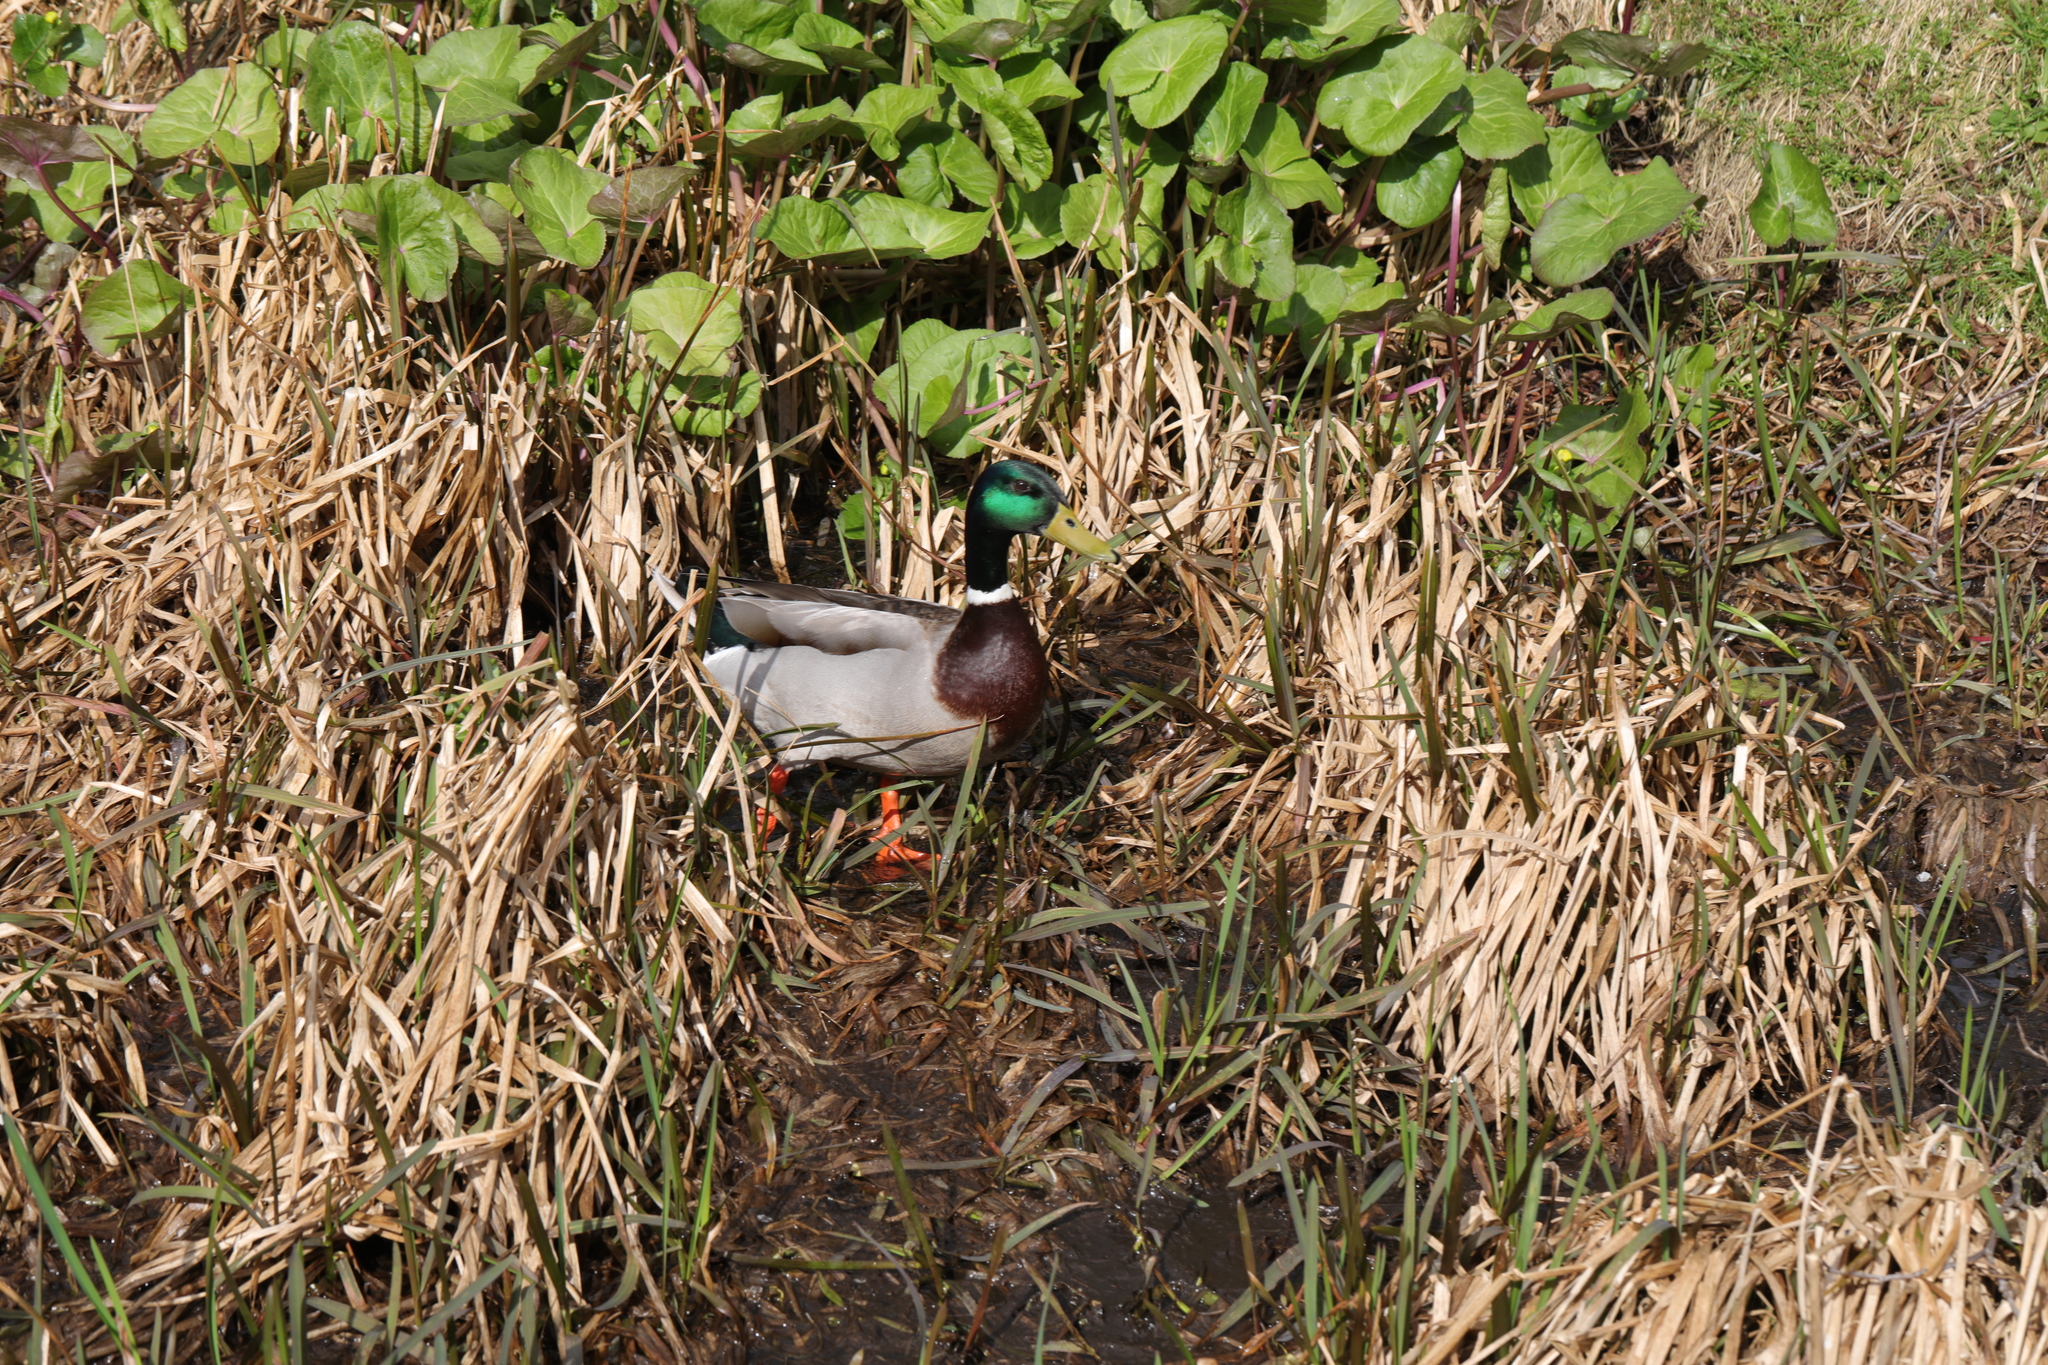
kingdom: Animalia
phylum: Chordata
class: Aves
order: Anseriformes
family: Anatidae
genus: Anas
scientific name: Anas platyrhynchos
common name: Mallard
